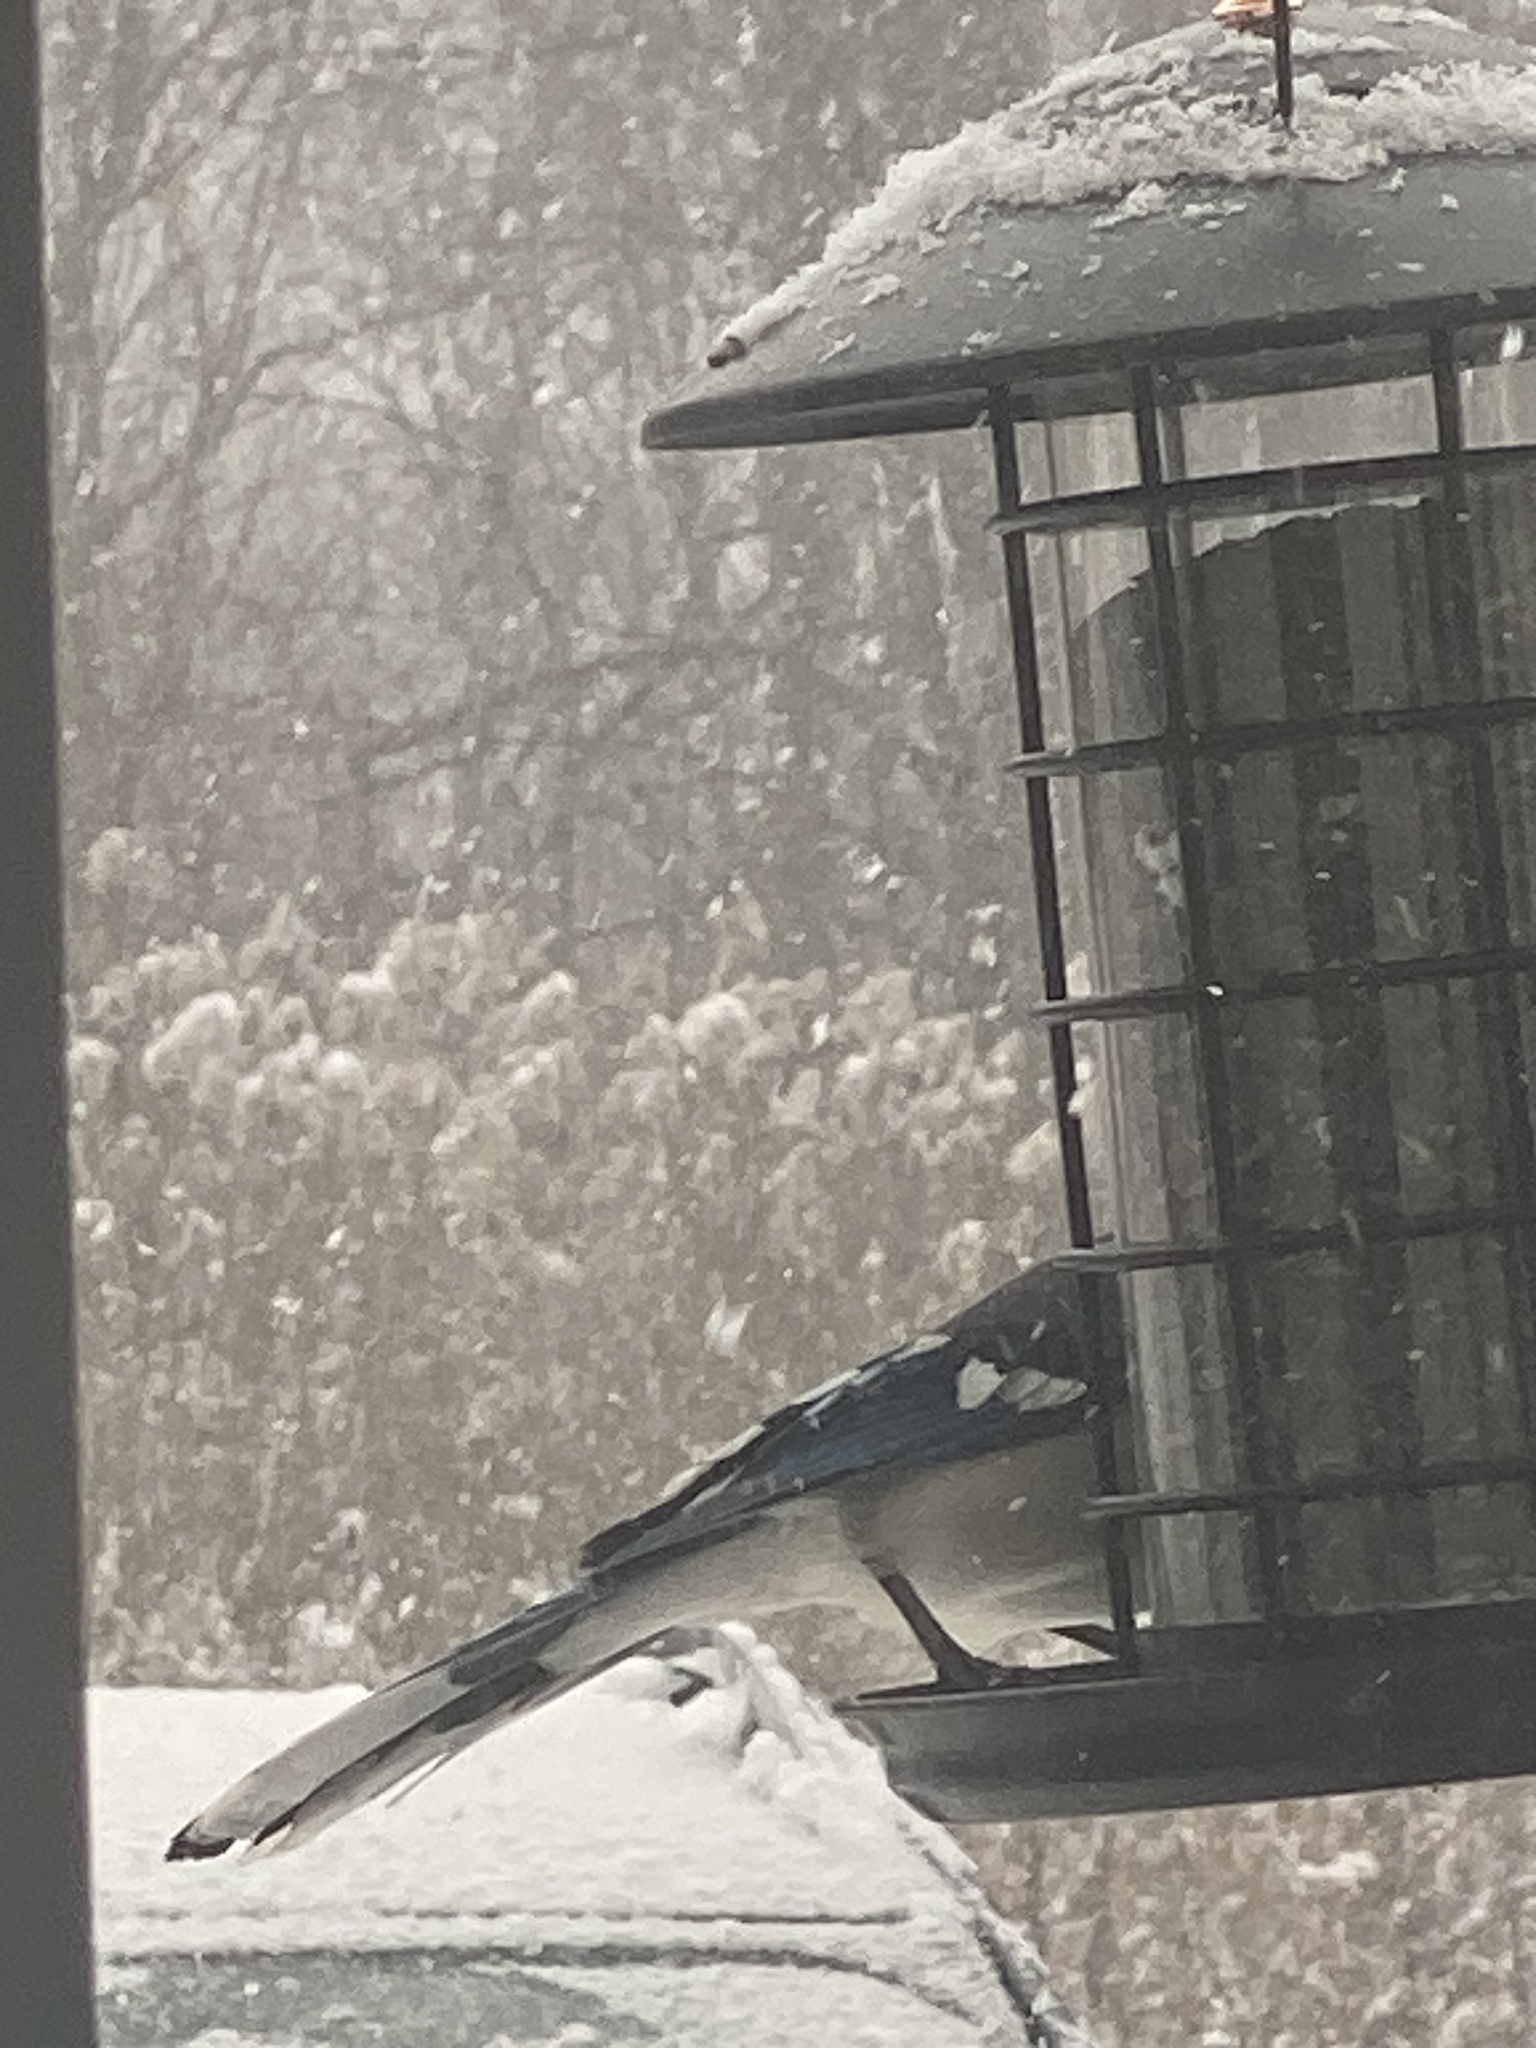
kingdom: Animalia
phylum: Chordata
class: Aves
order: Passeriformes
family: Corvidae
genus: Cyanocitta
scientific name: Cyanocitta cristata
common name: Blue jay
